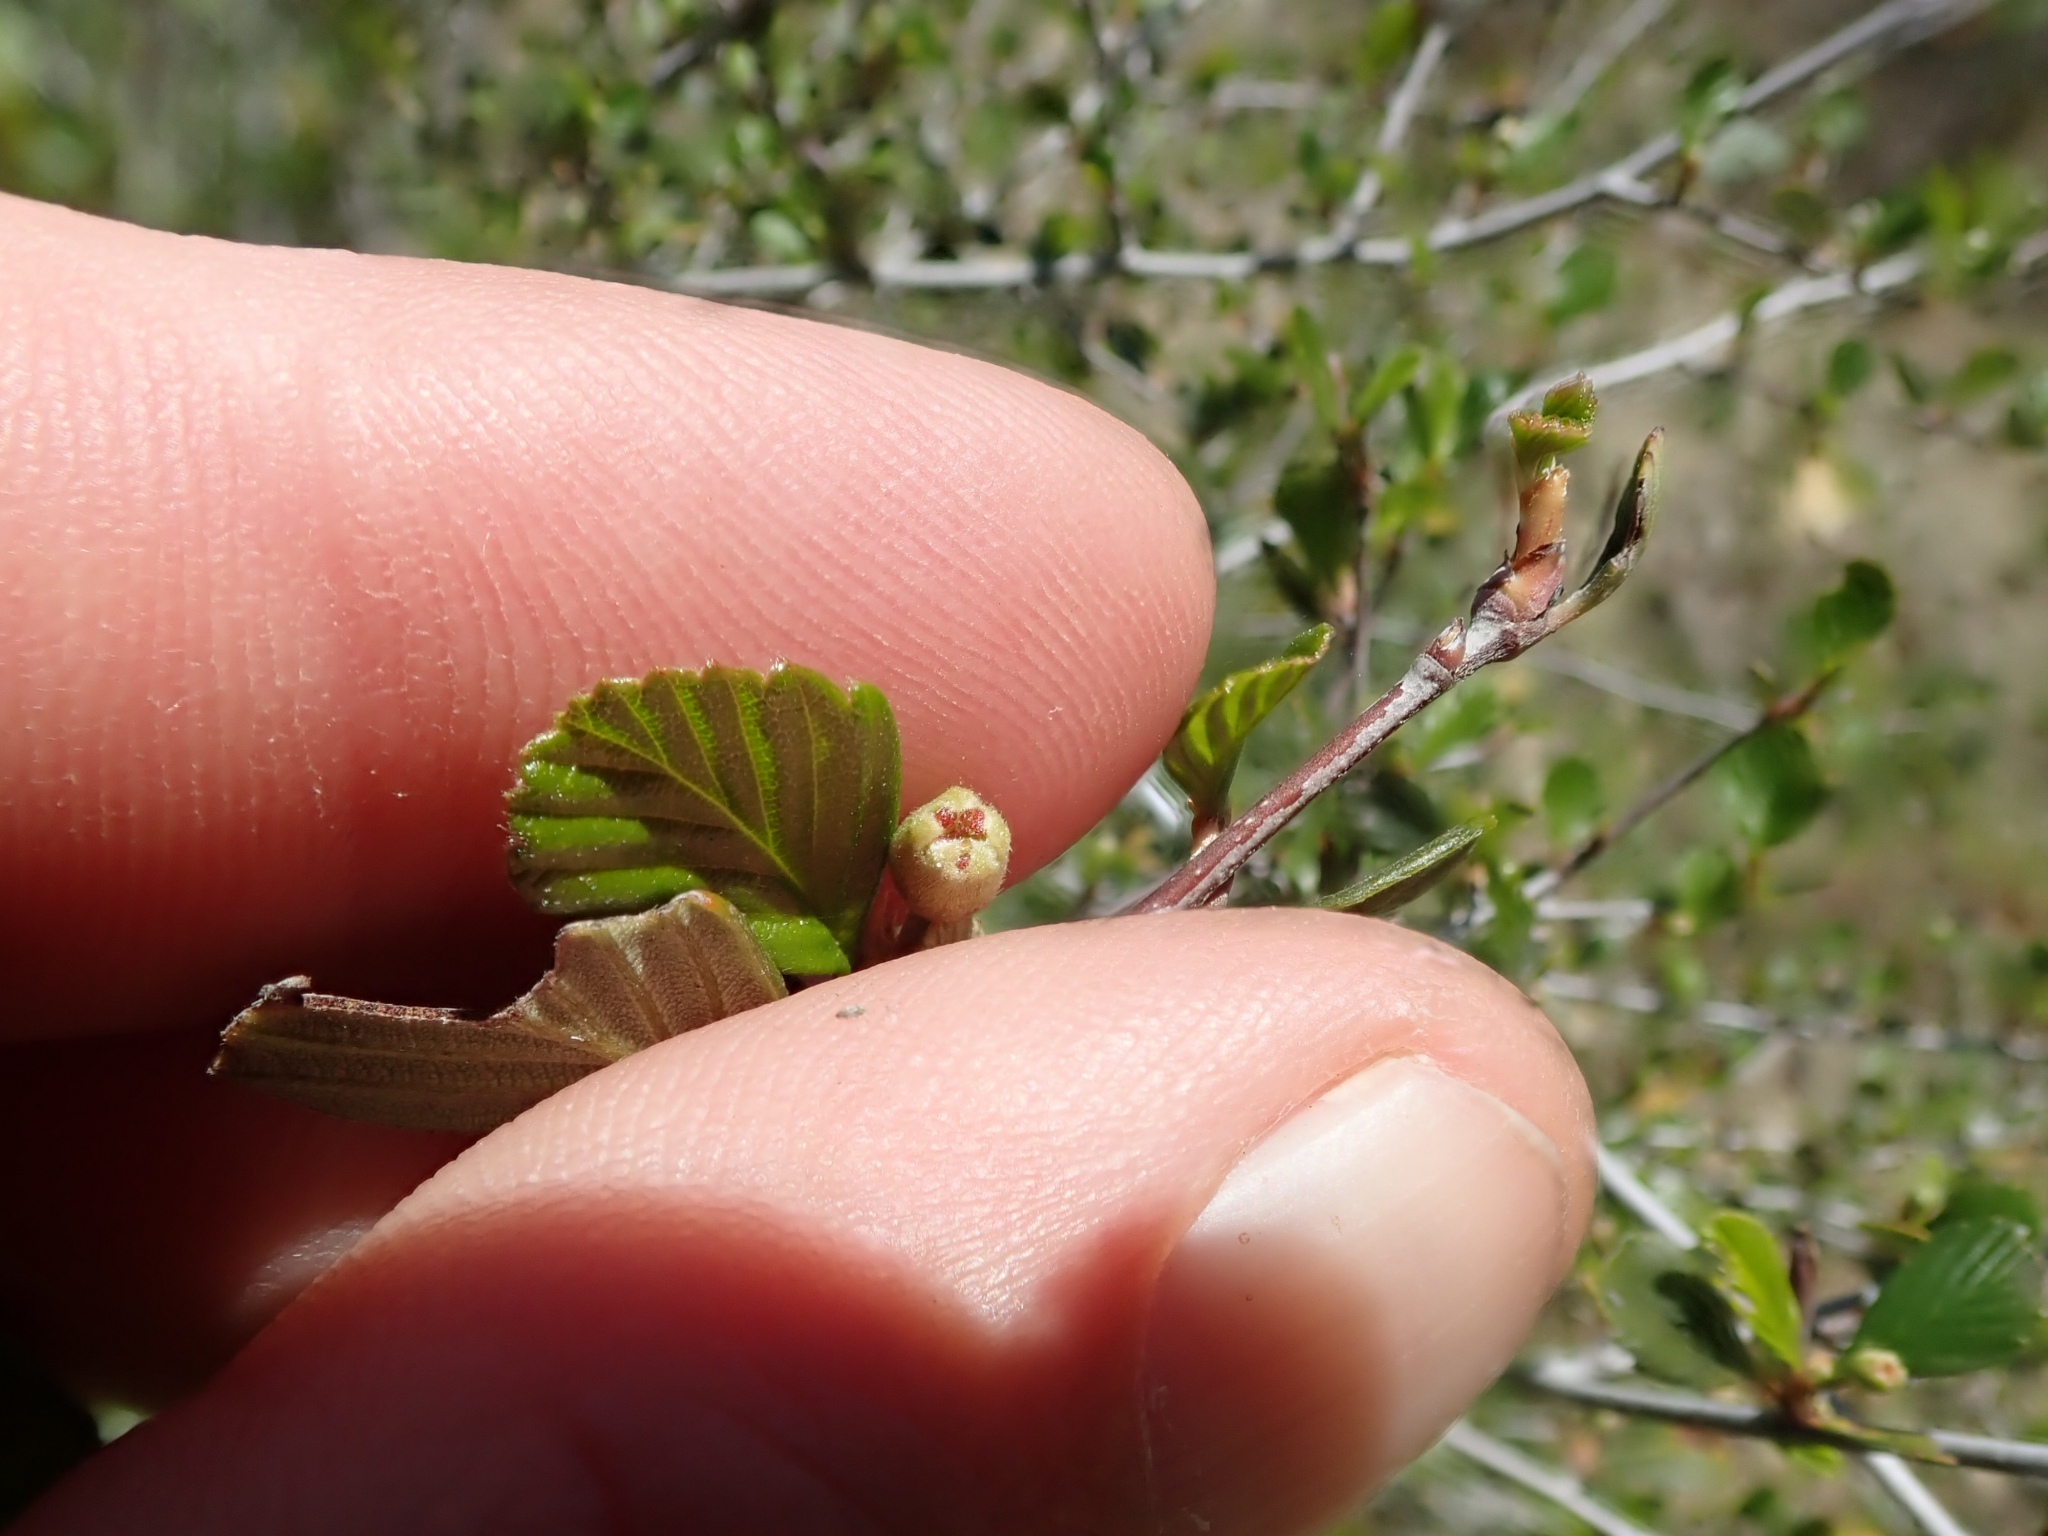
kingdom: Plantae
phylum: Tracheophyta
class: Magnoliopsida
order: Rosales
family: Rosaceae
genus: Cercocarpus
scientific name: Cercocarpus betuloides
